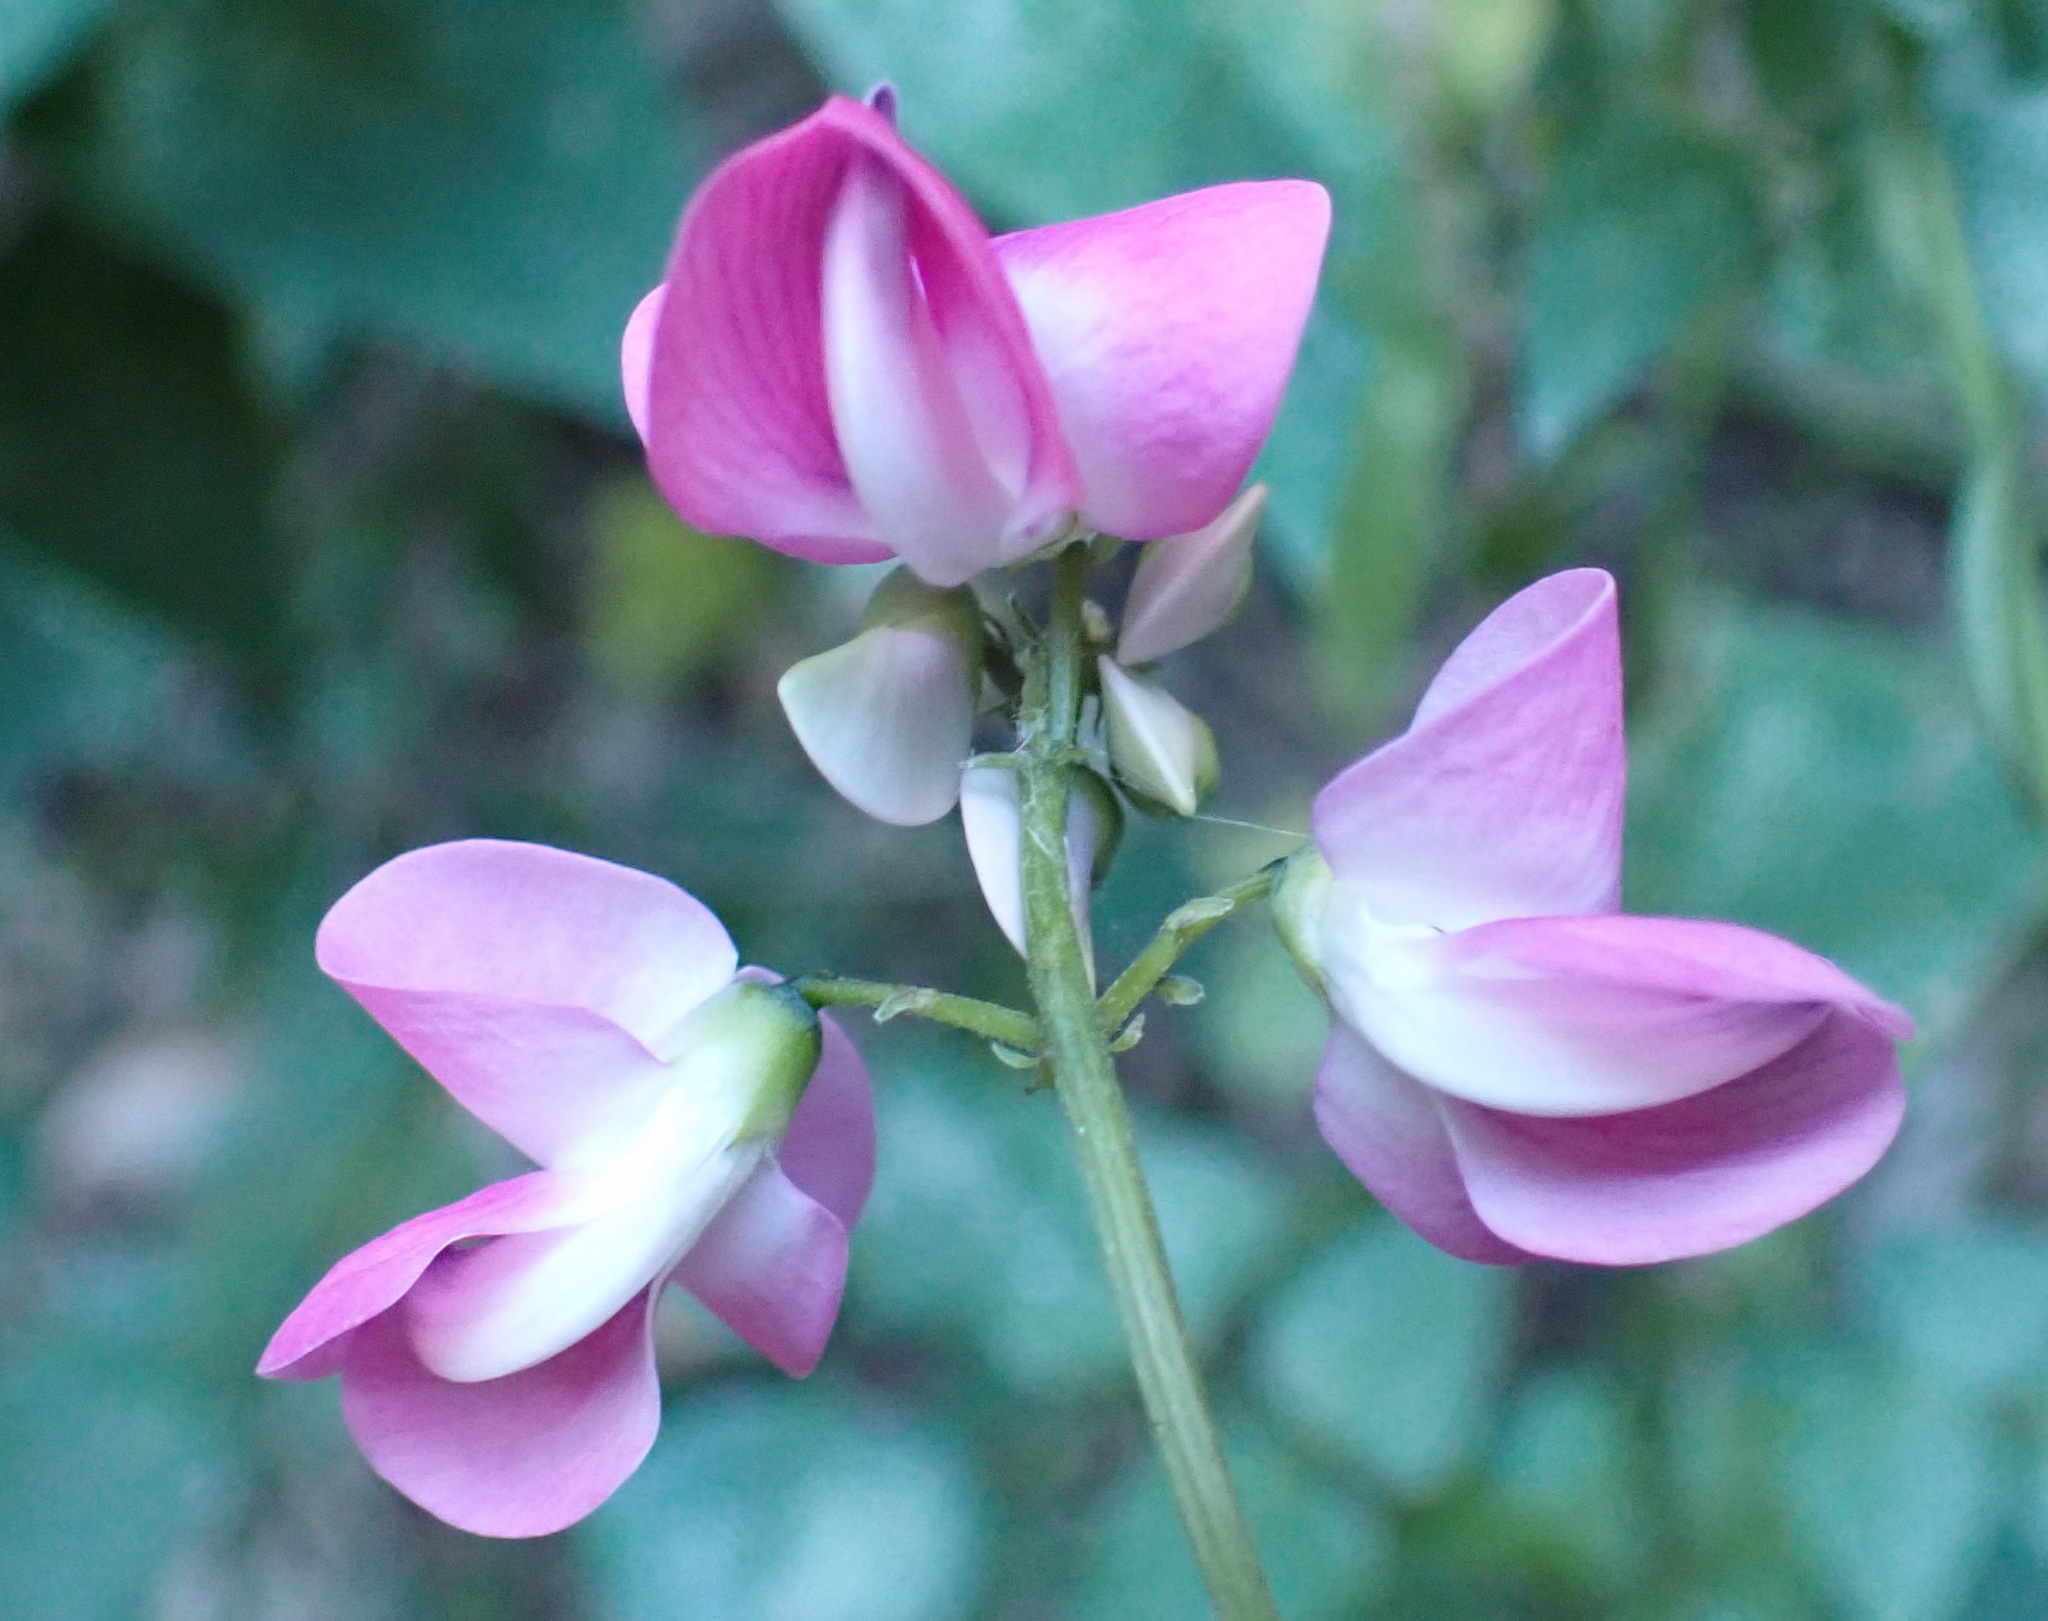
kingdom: Plantae
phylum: Tracheophyta
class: Magnoliopsida
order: Fabales
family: Fabaceae
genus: Dipogon
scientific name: Dipogon lignosus
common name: Okie bean
